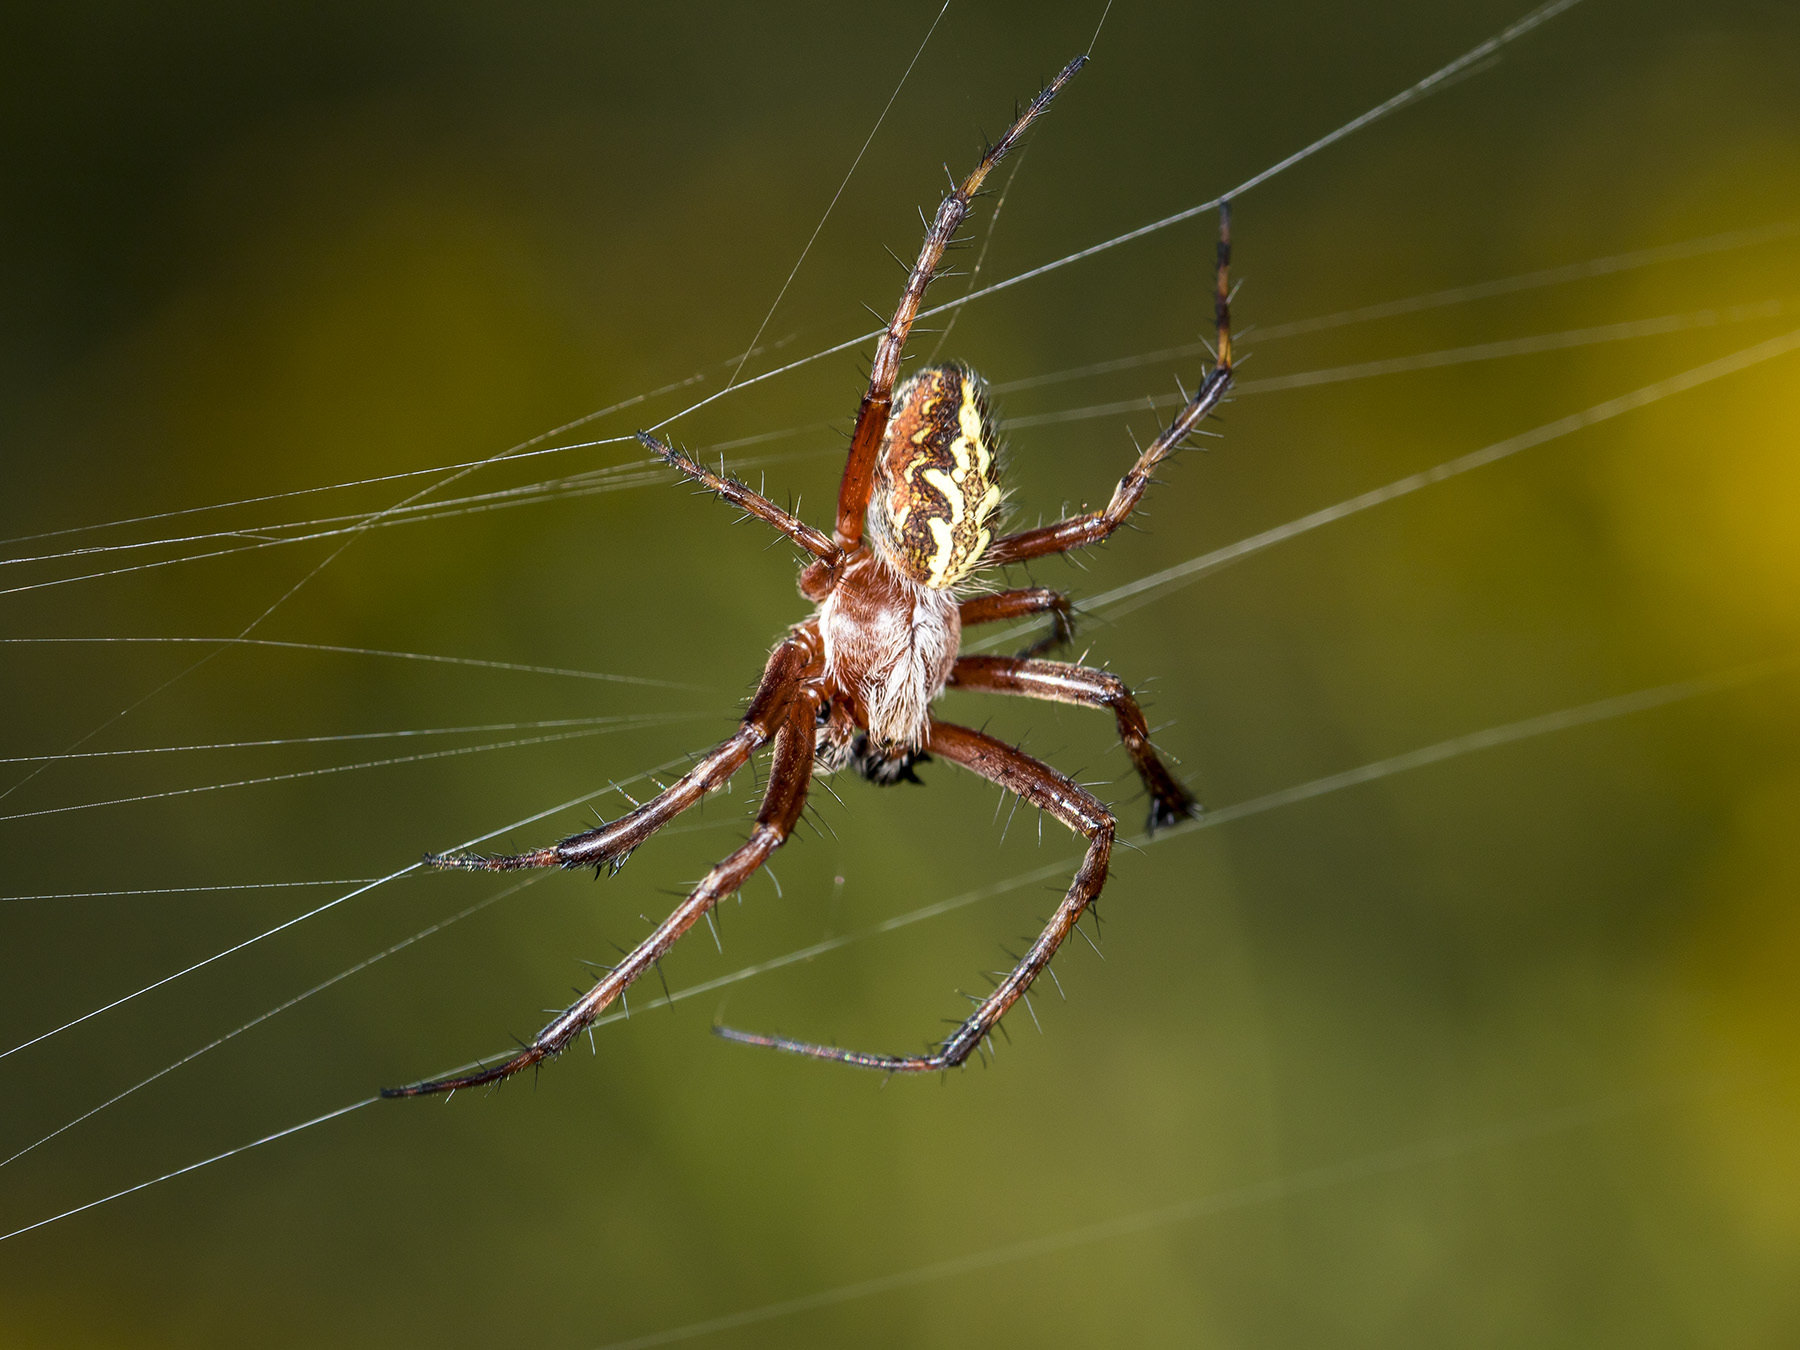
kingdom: Animalia
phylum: Arthropoda
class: Arachnida
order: Araneae
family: Araneidae
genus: Aculepeira
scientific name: Aculepeira packardi
